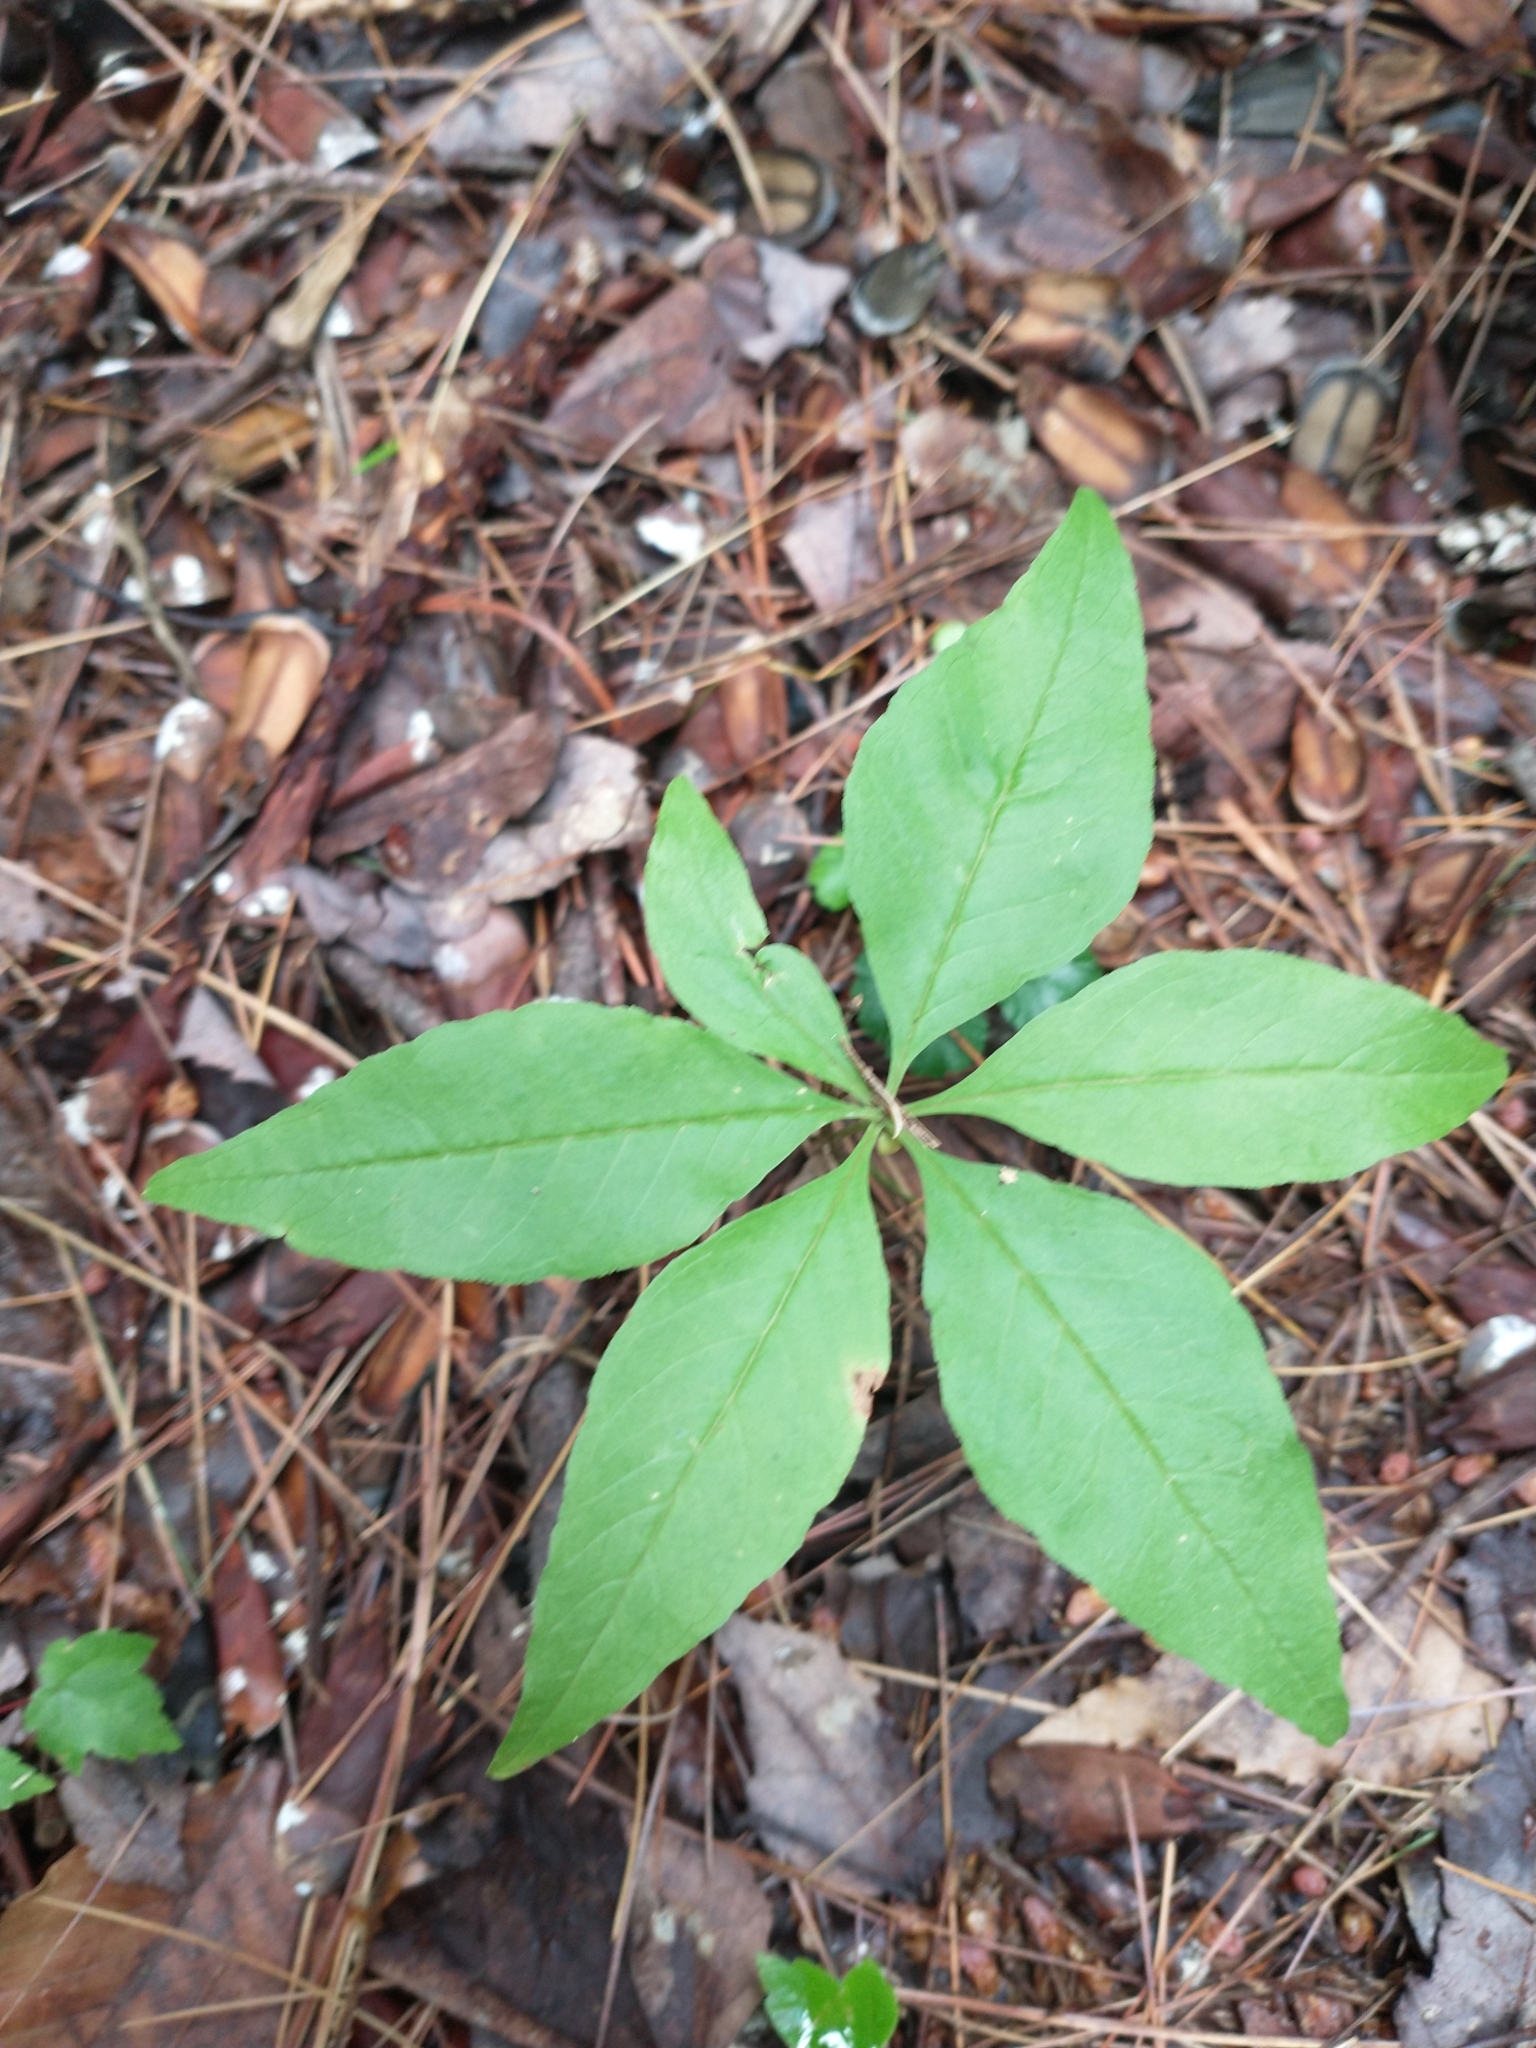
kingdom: Plantae
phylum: Tracheophyta
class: Magnoliopsida
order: Ericales
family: Primulaceae
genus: Lysimachia
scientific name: Lysimachia borealis
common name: American starflower
